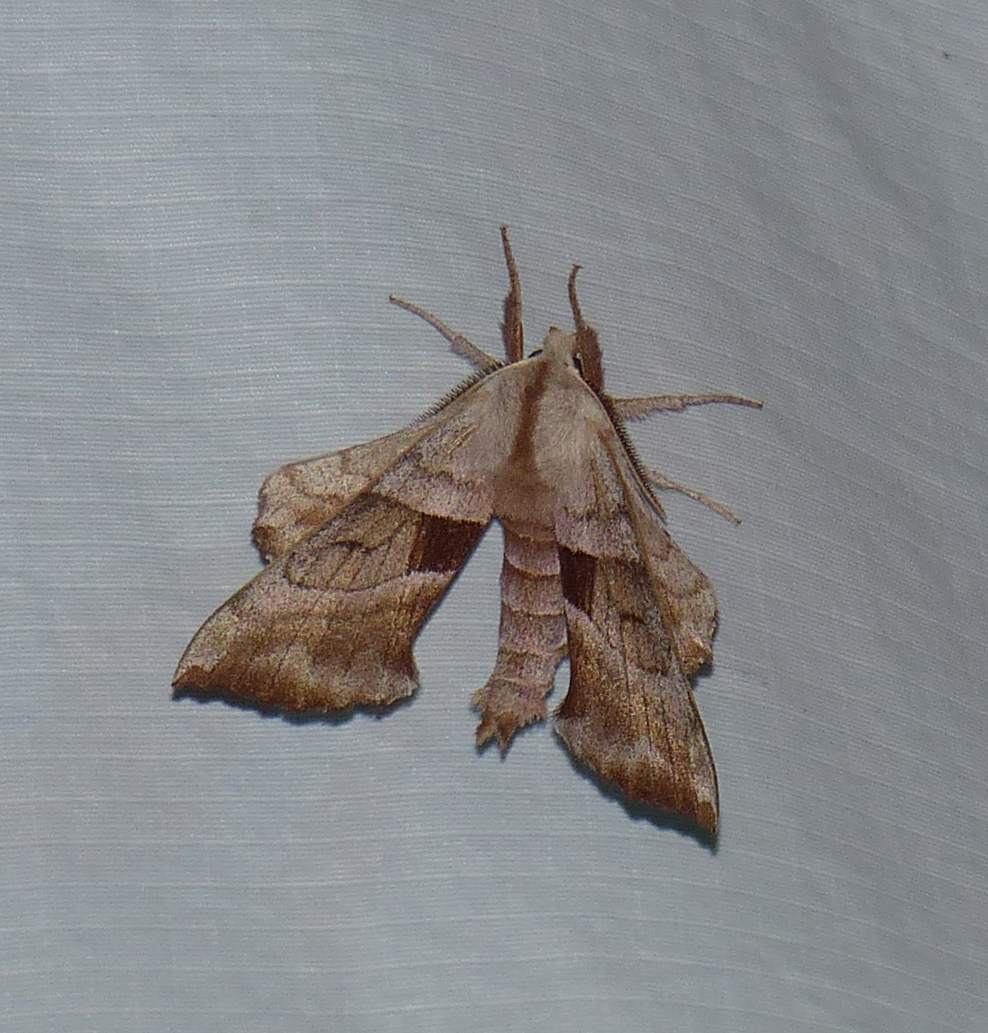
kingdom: Animalia
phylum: Arthropoda
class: Insecta
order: Lepidoptera
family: Sphingidae
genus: Amorpha
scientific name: Amorpha juglandis
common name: Walnut sphinx
